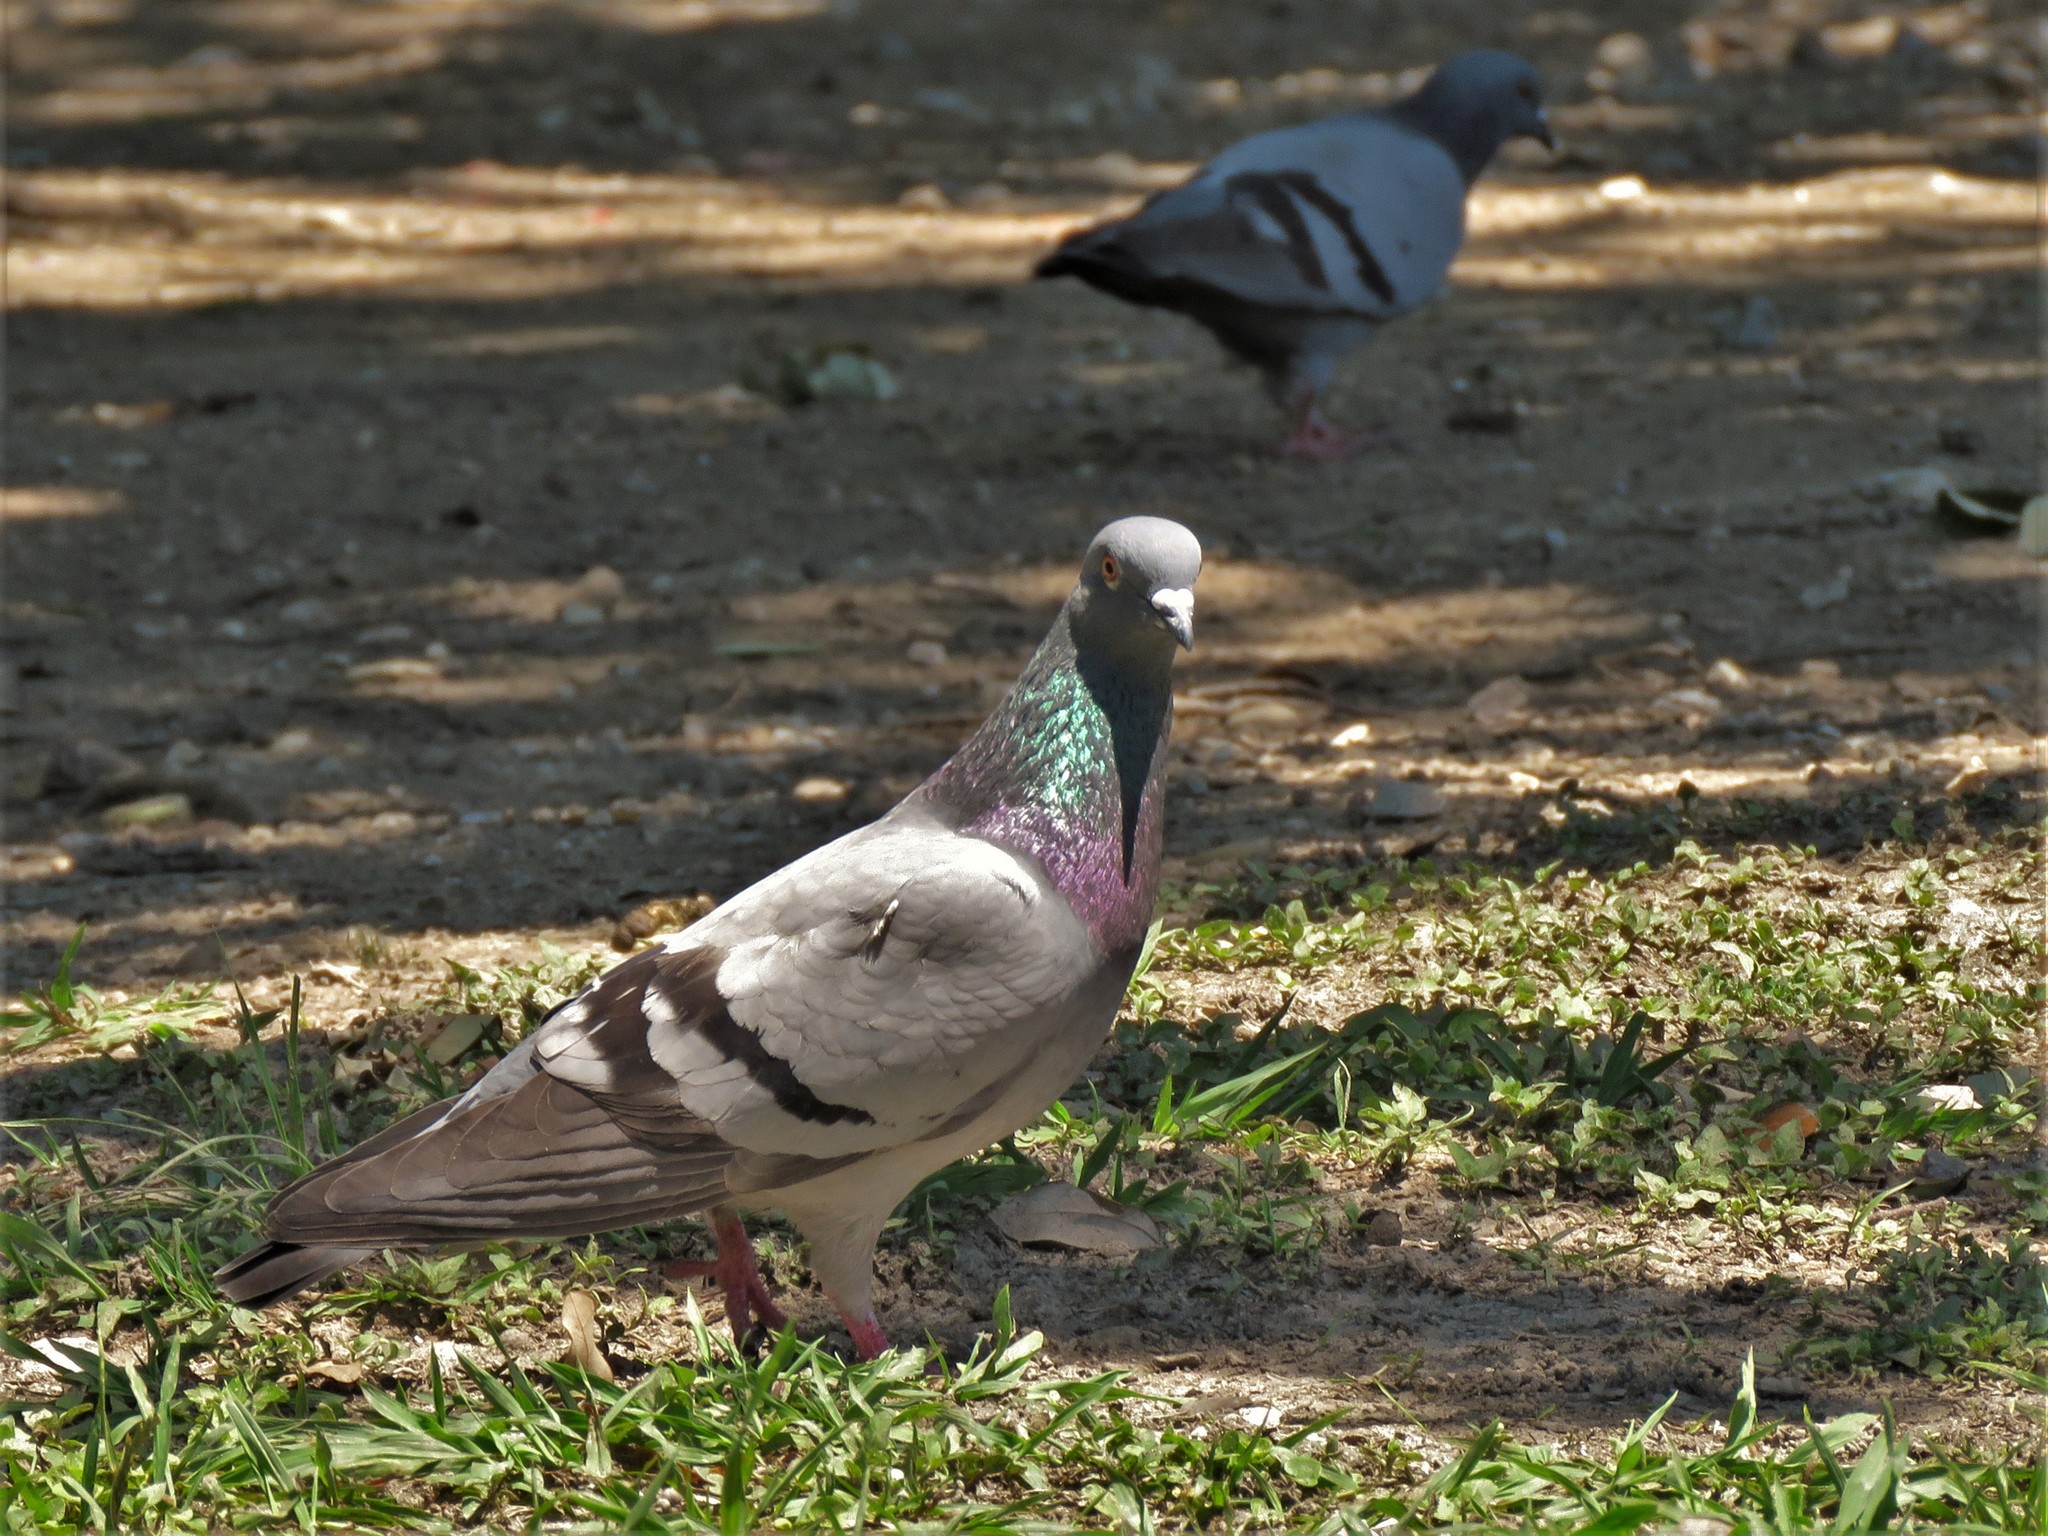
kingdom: Animalia
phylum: Chordata
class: Aves
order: Columbiformes
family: Columbidae
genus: Columba
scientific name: Columba livia
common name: Rock pigeon
